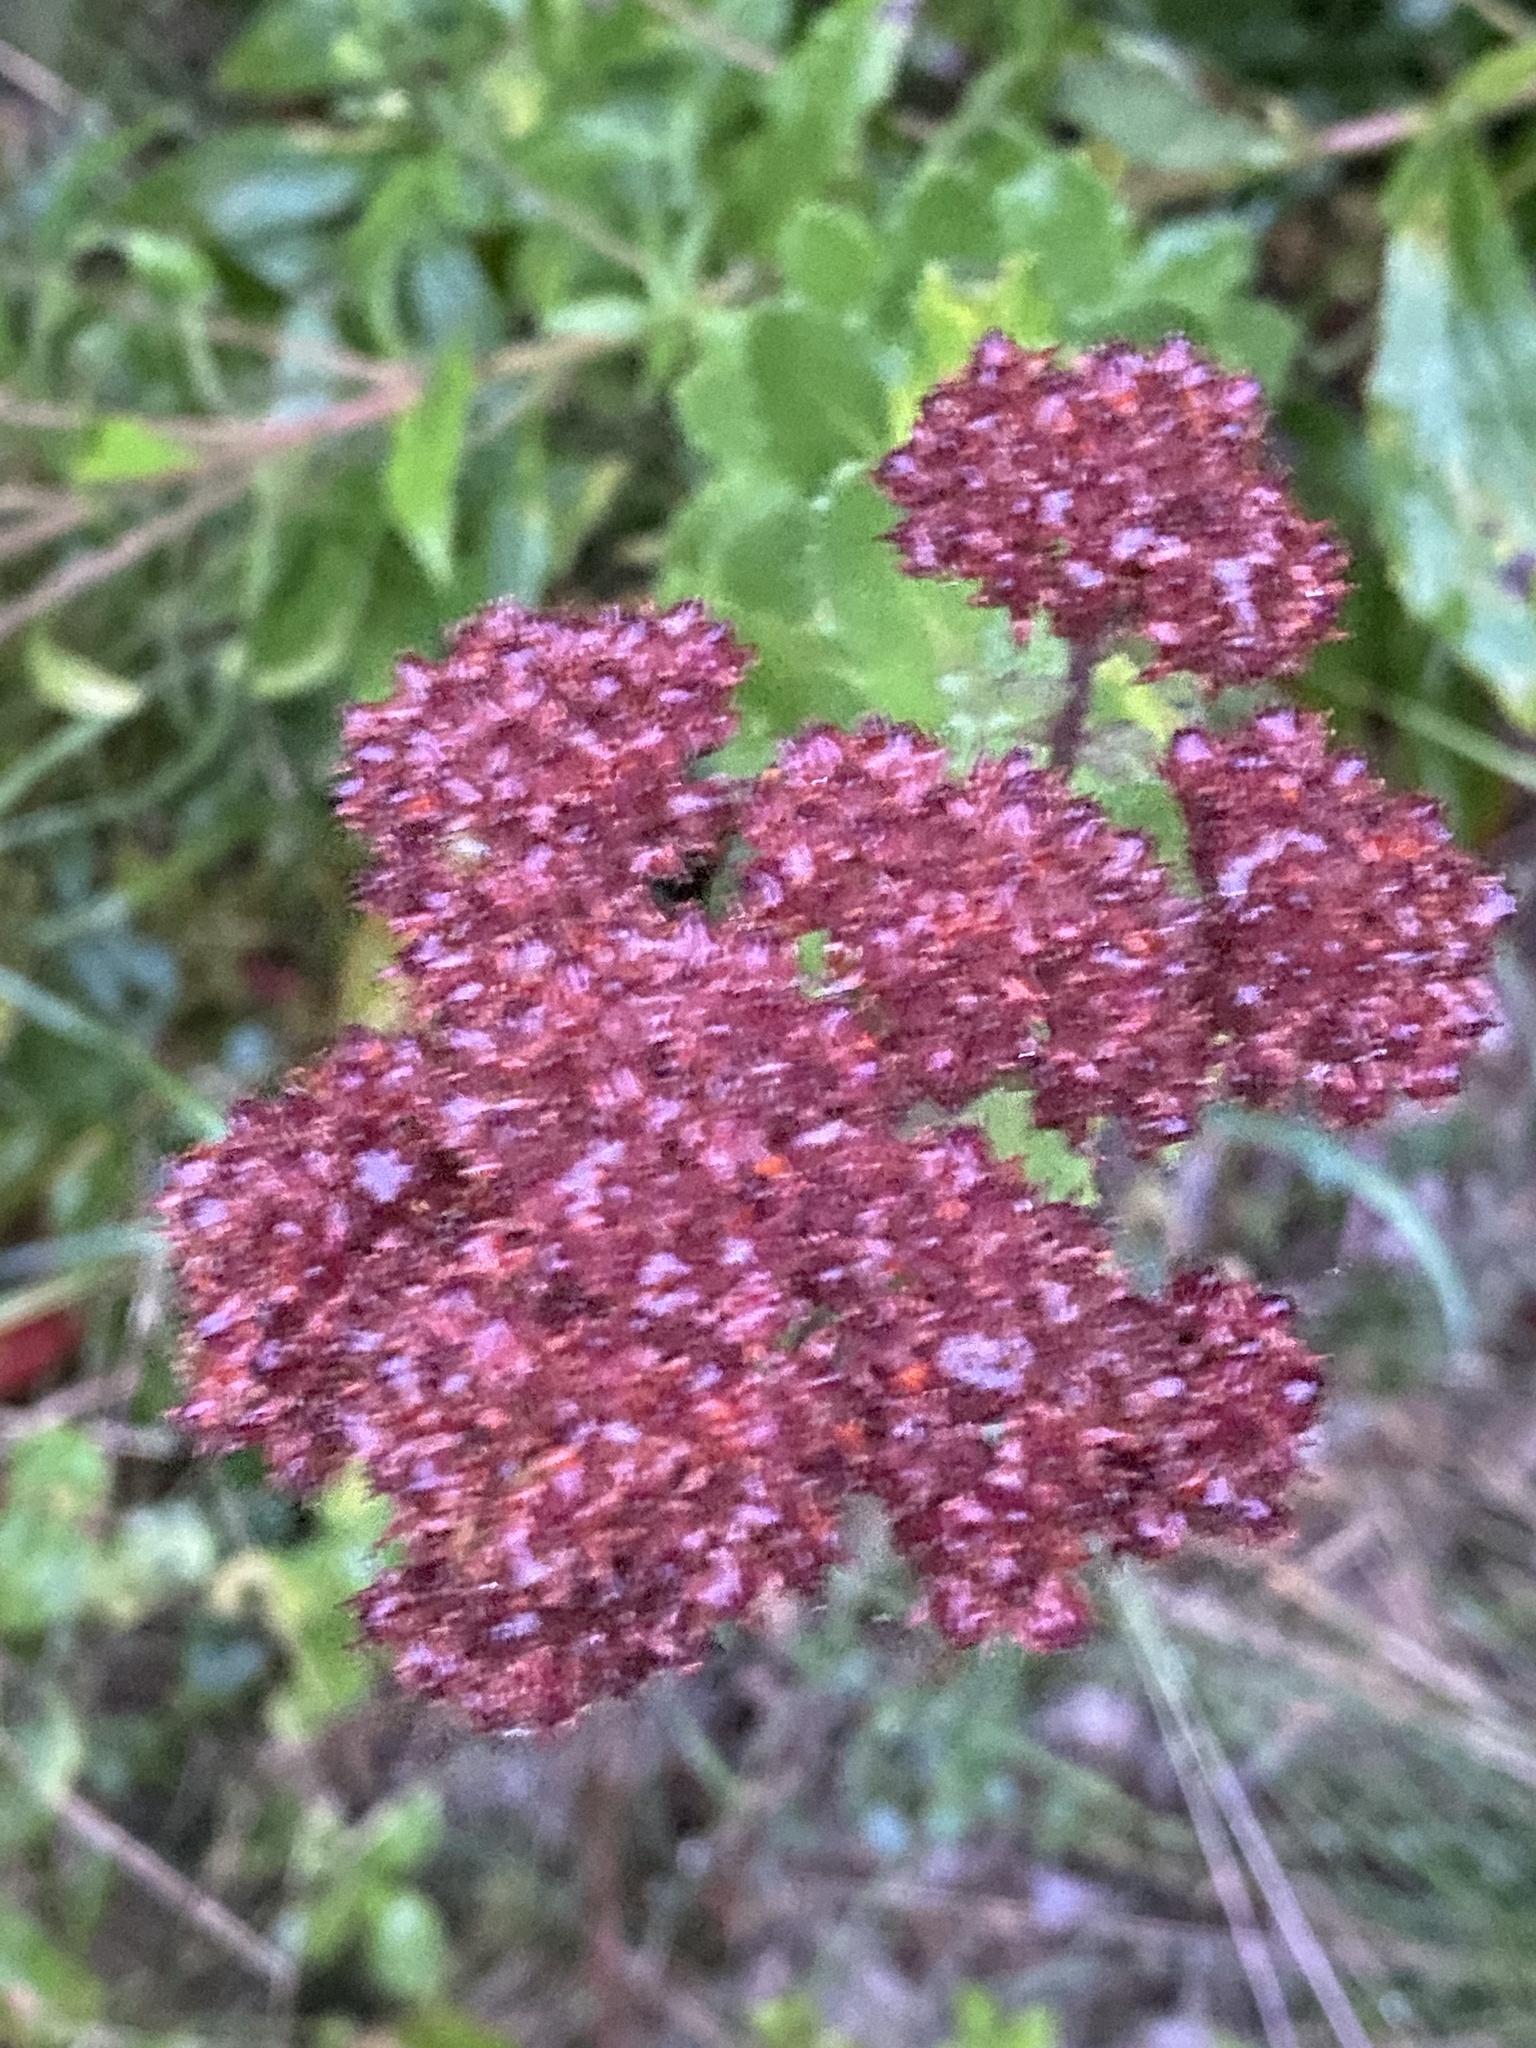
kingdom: Plantae
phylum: Tracheophyta
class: Magnoliopsida
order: Saxifragales
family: Crassulaceae
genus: Hylotelephium
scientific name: Hylotelephium telephium
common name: Live-forever
